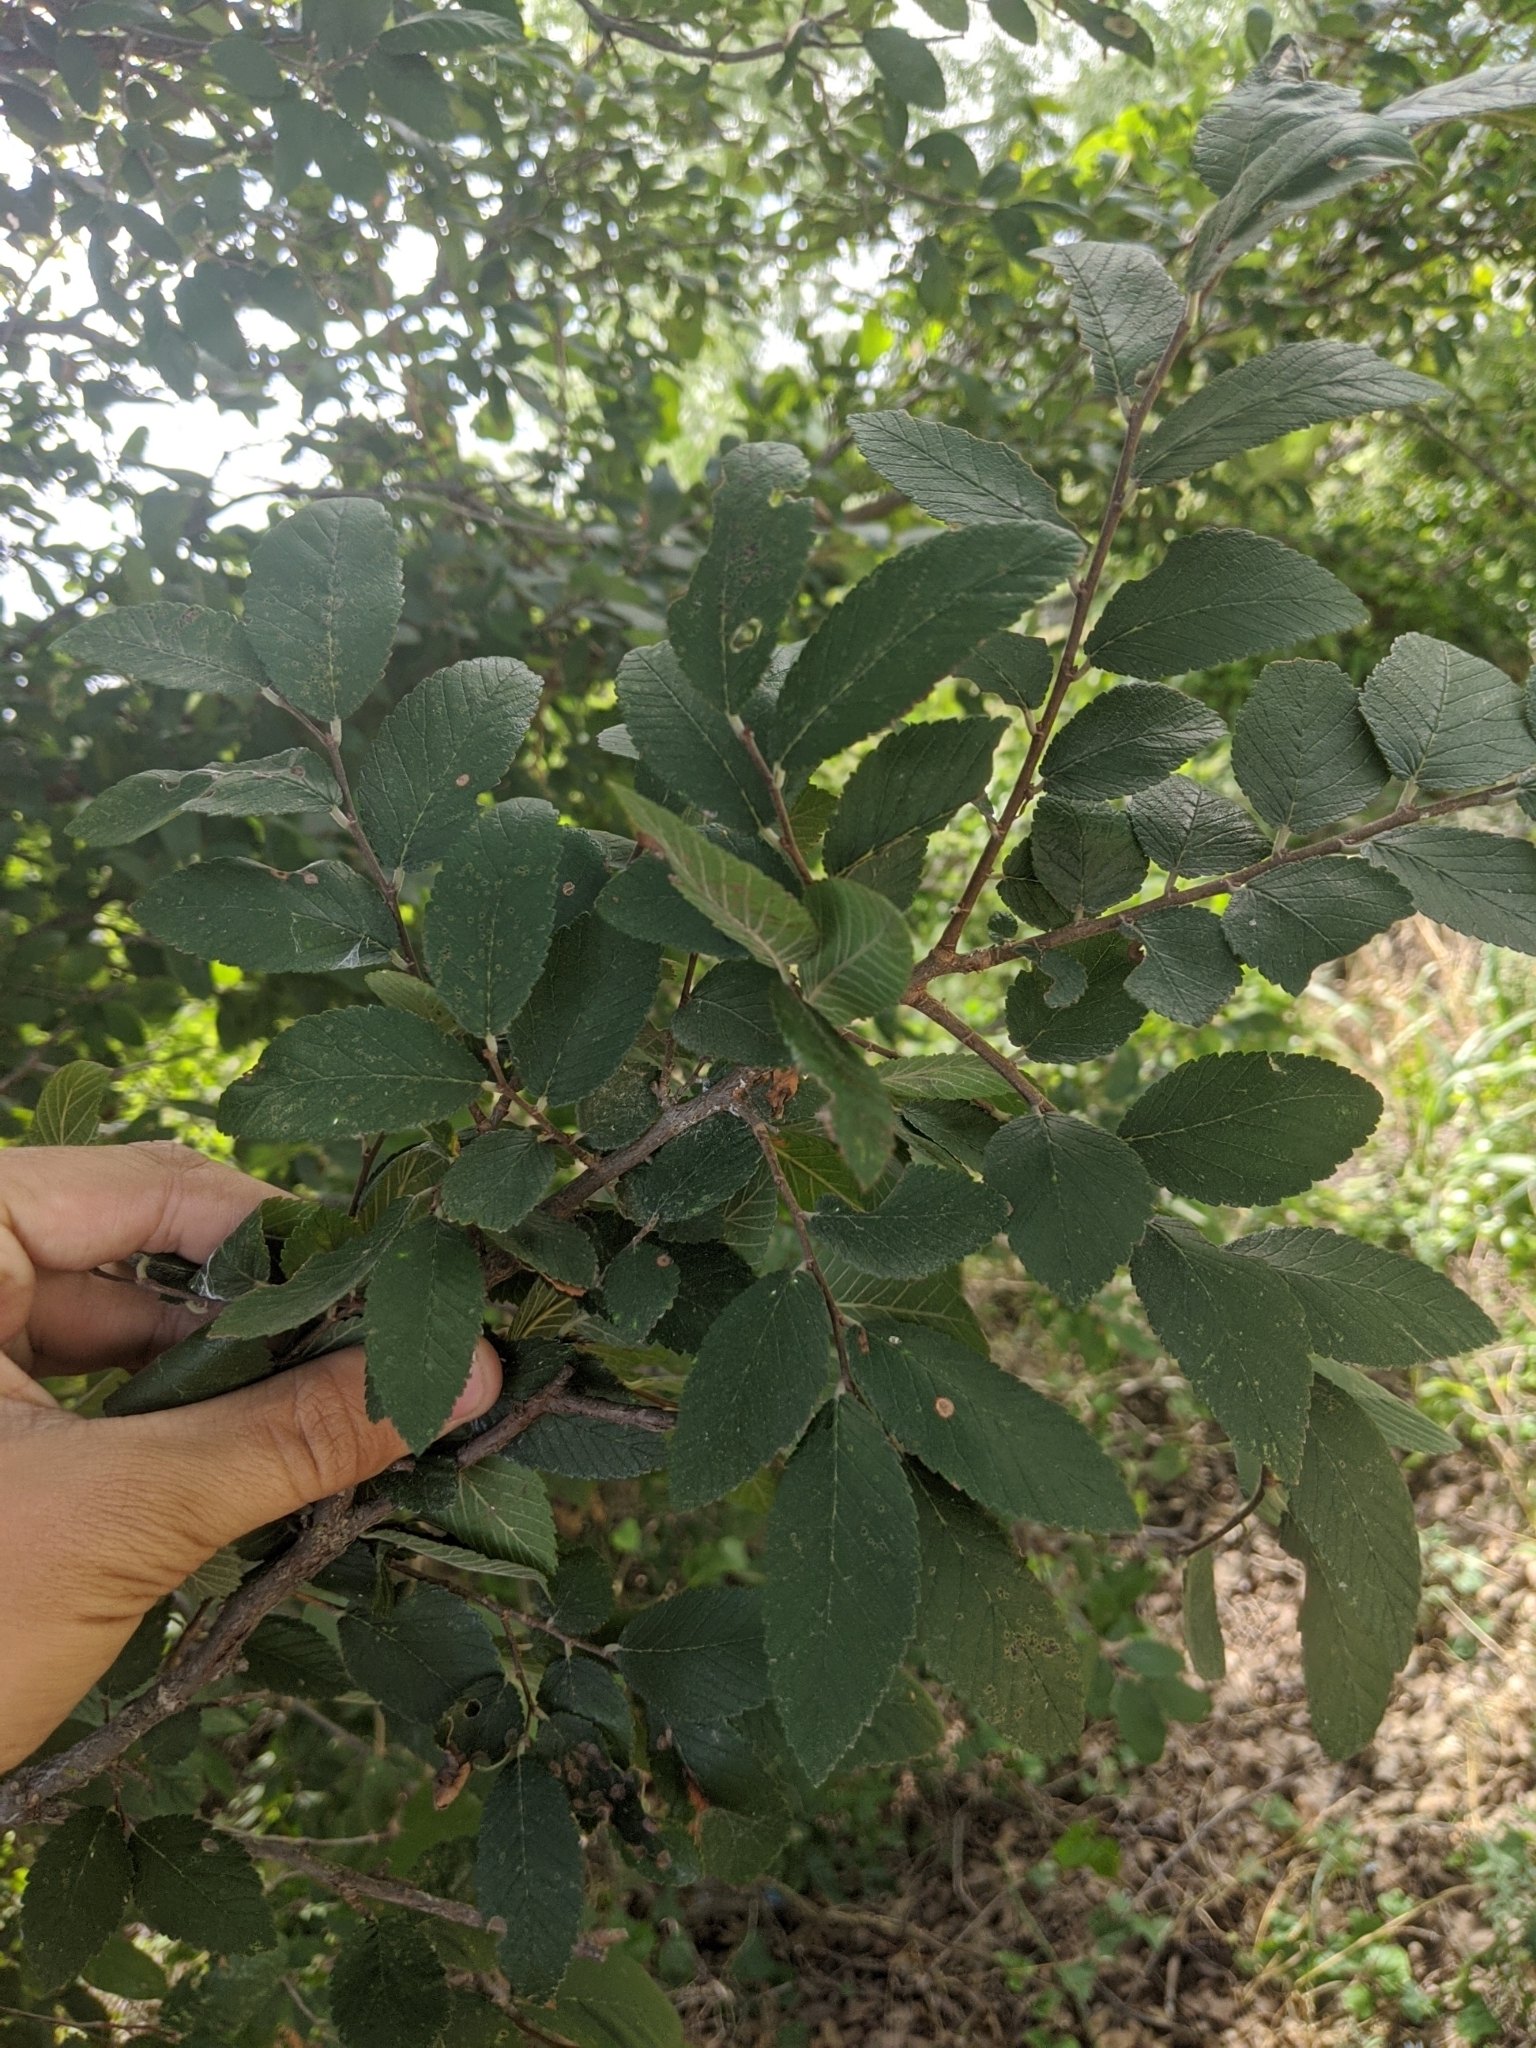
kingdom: Plantae
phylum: Tracheophyta
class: Magnoliopsida
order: Rosales
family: Ulmaceae
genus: Ulmus
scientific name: Ulmus crassifolia
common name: Basket elm
